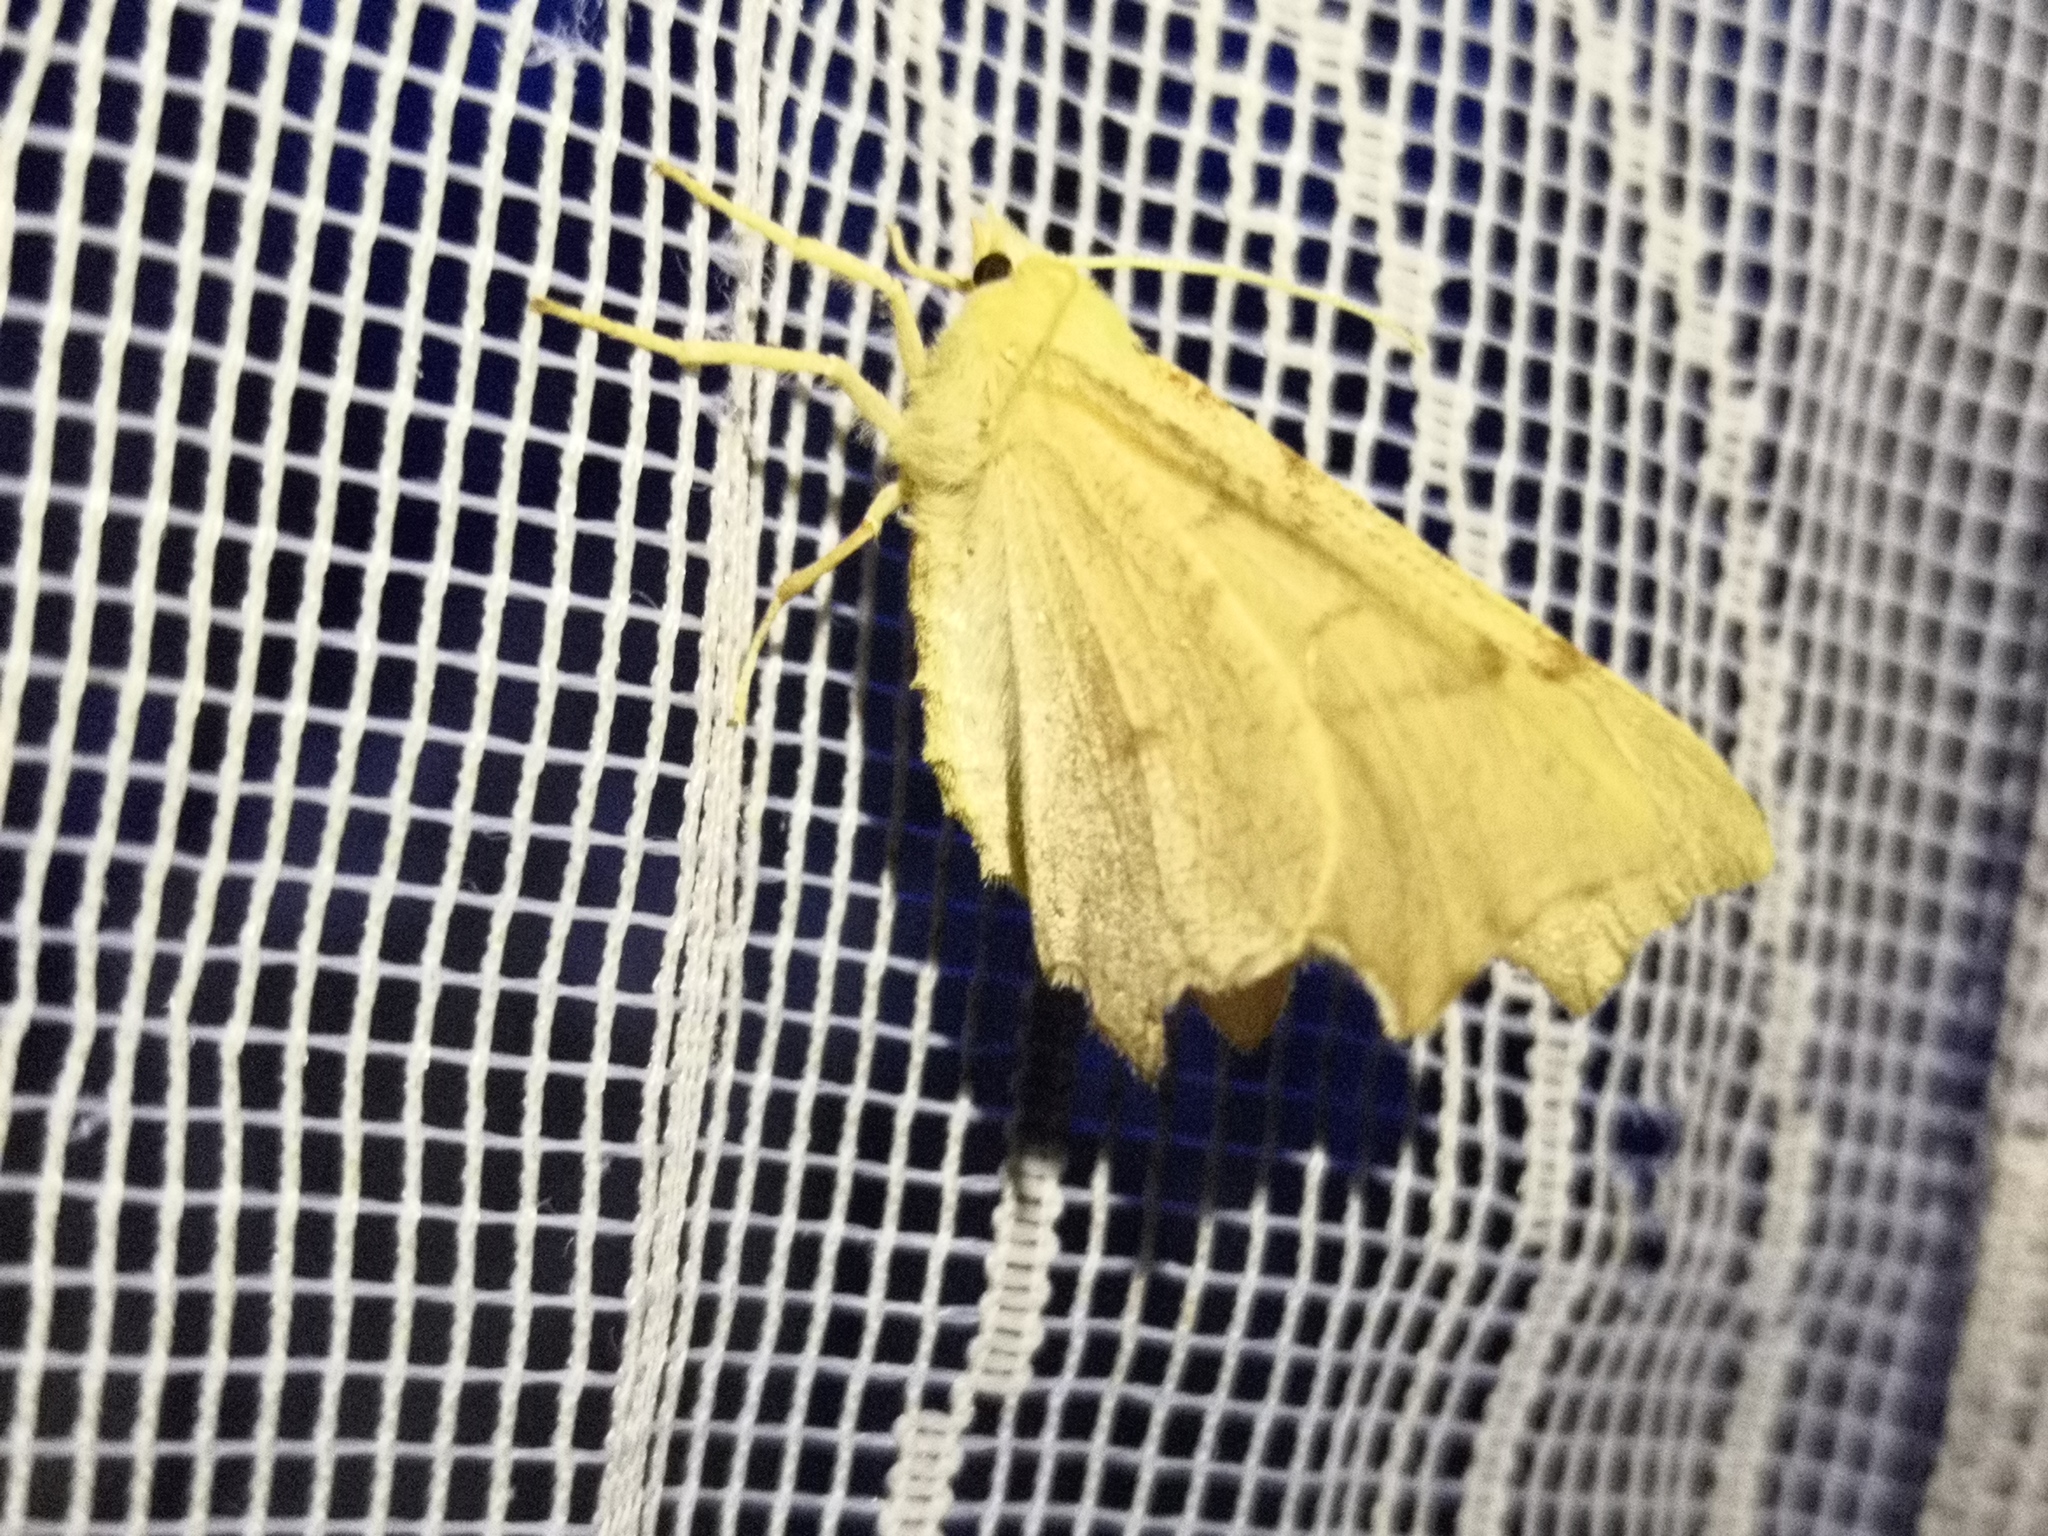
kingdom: Animalia
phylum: Arthropoda
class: Insecta
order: Lepidoptera
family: Geometridae
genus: Ennomos
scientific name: Ennomos erosaria
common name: September thorn
